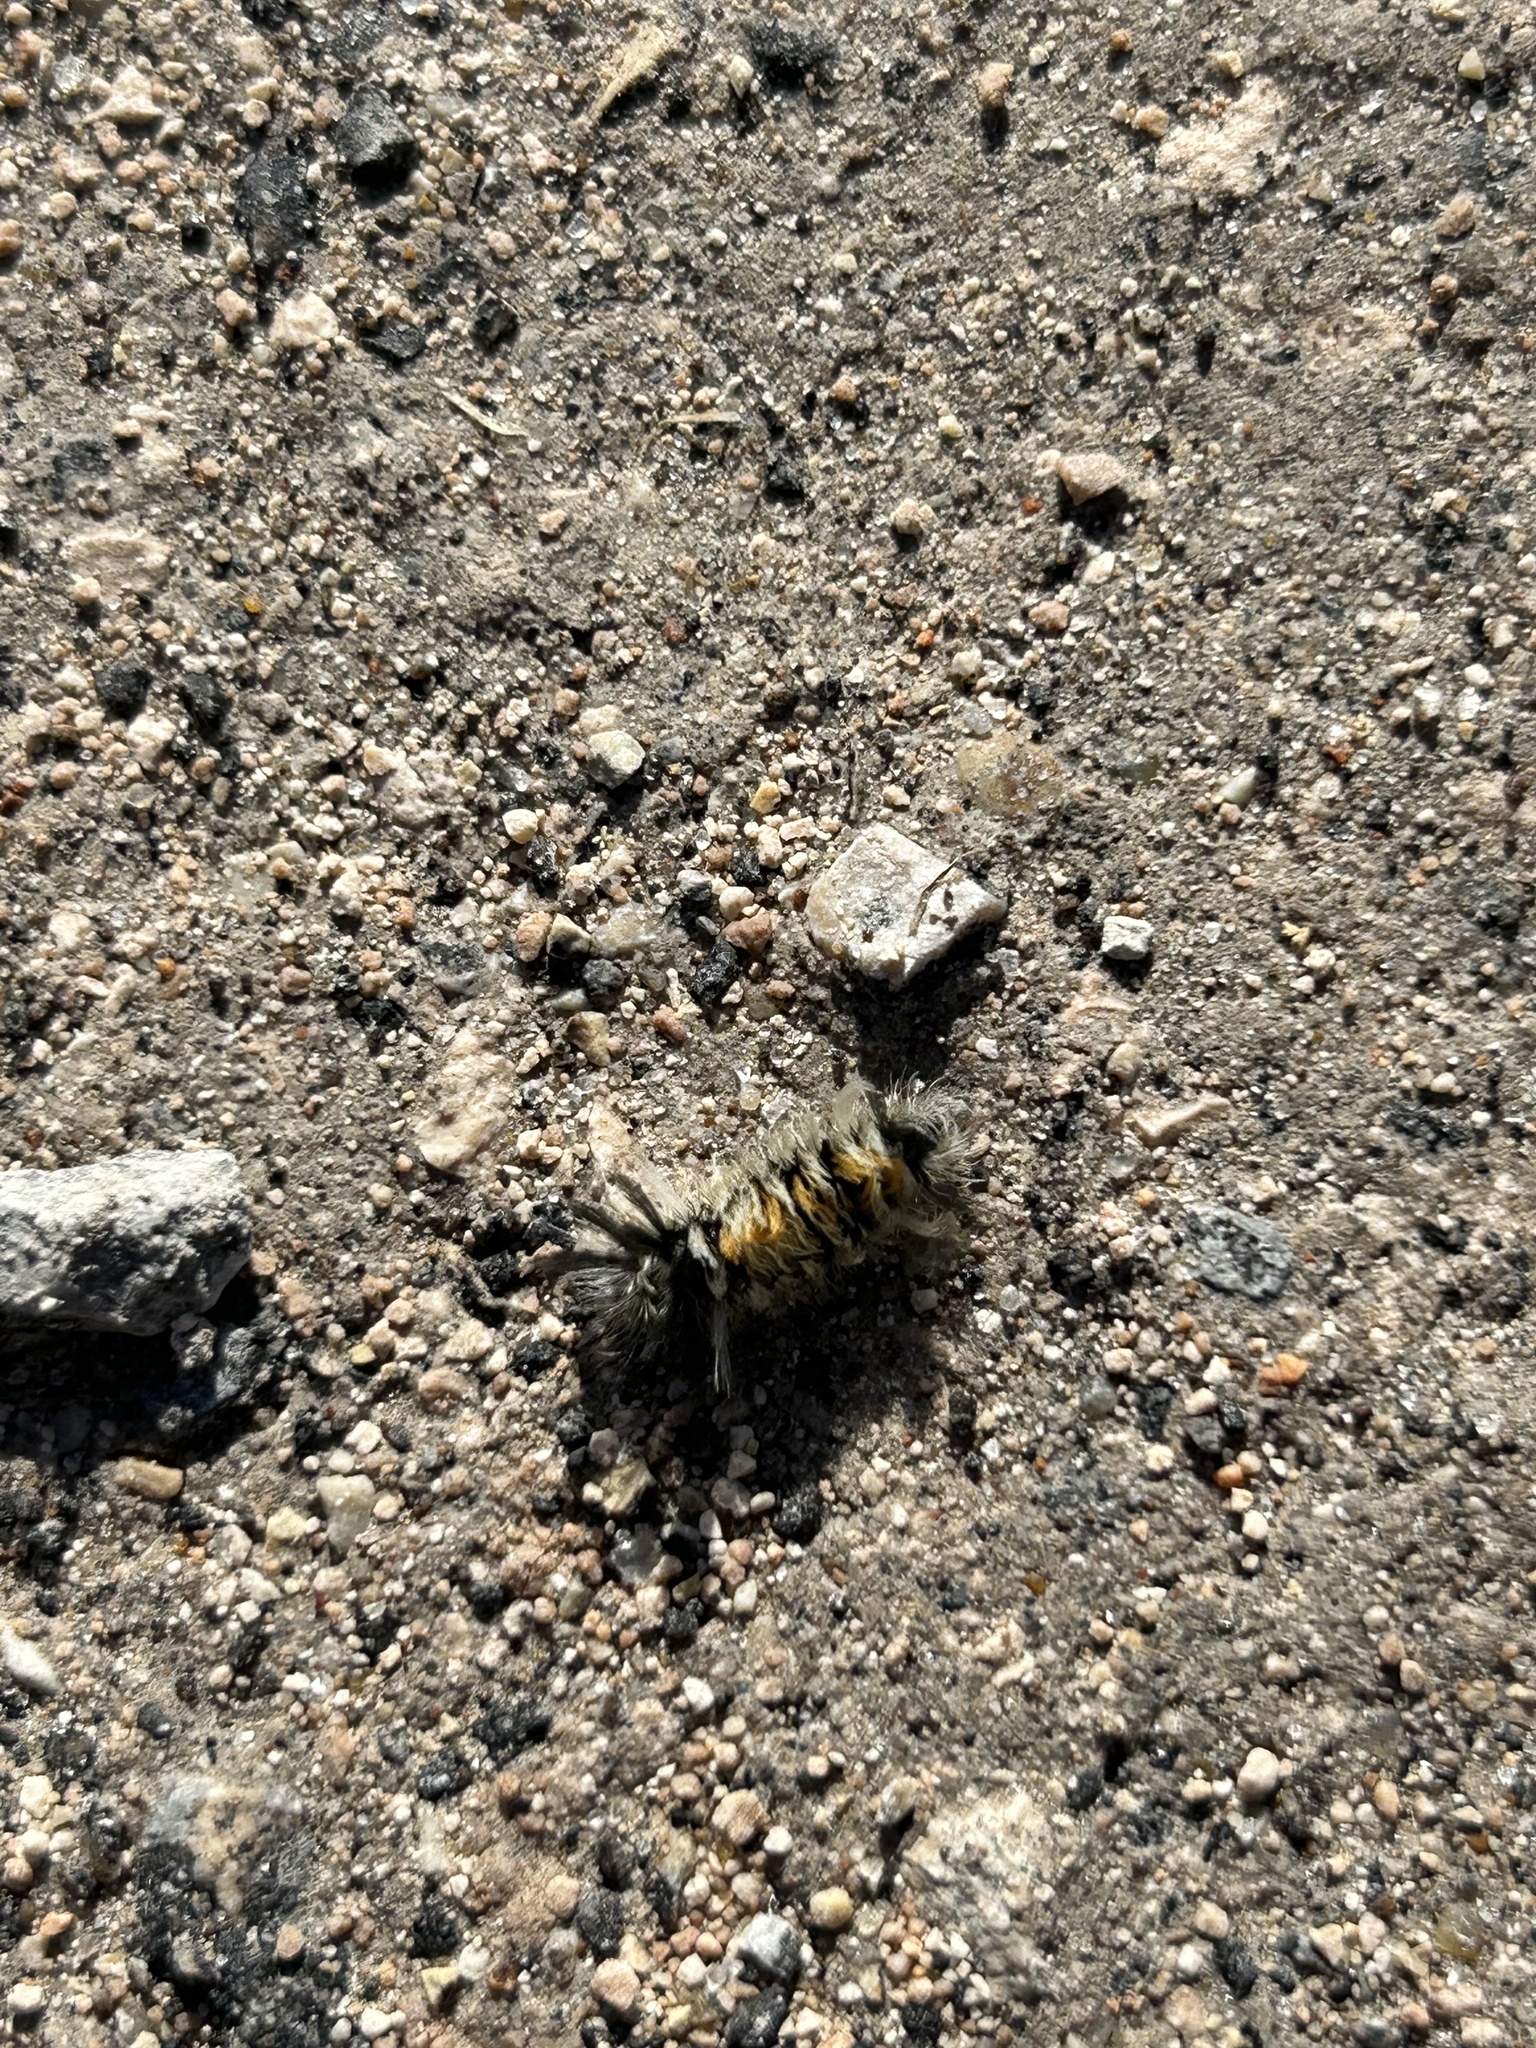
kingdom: Animalia
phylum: Arthropoda
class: Insecta
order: Lepidoptera
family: Erebidae
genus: Euchaetes
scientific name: Euchaetes bolteri
